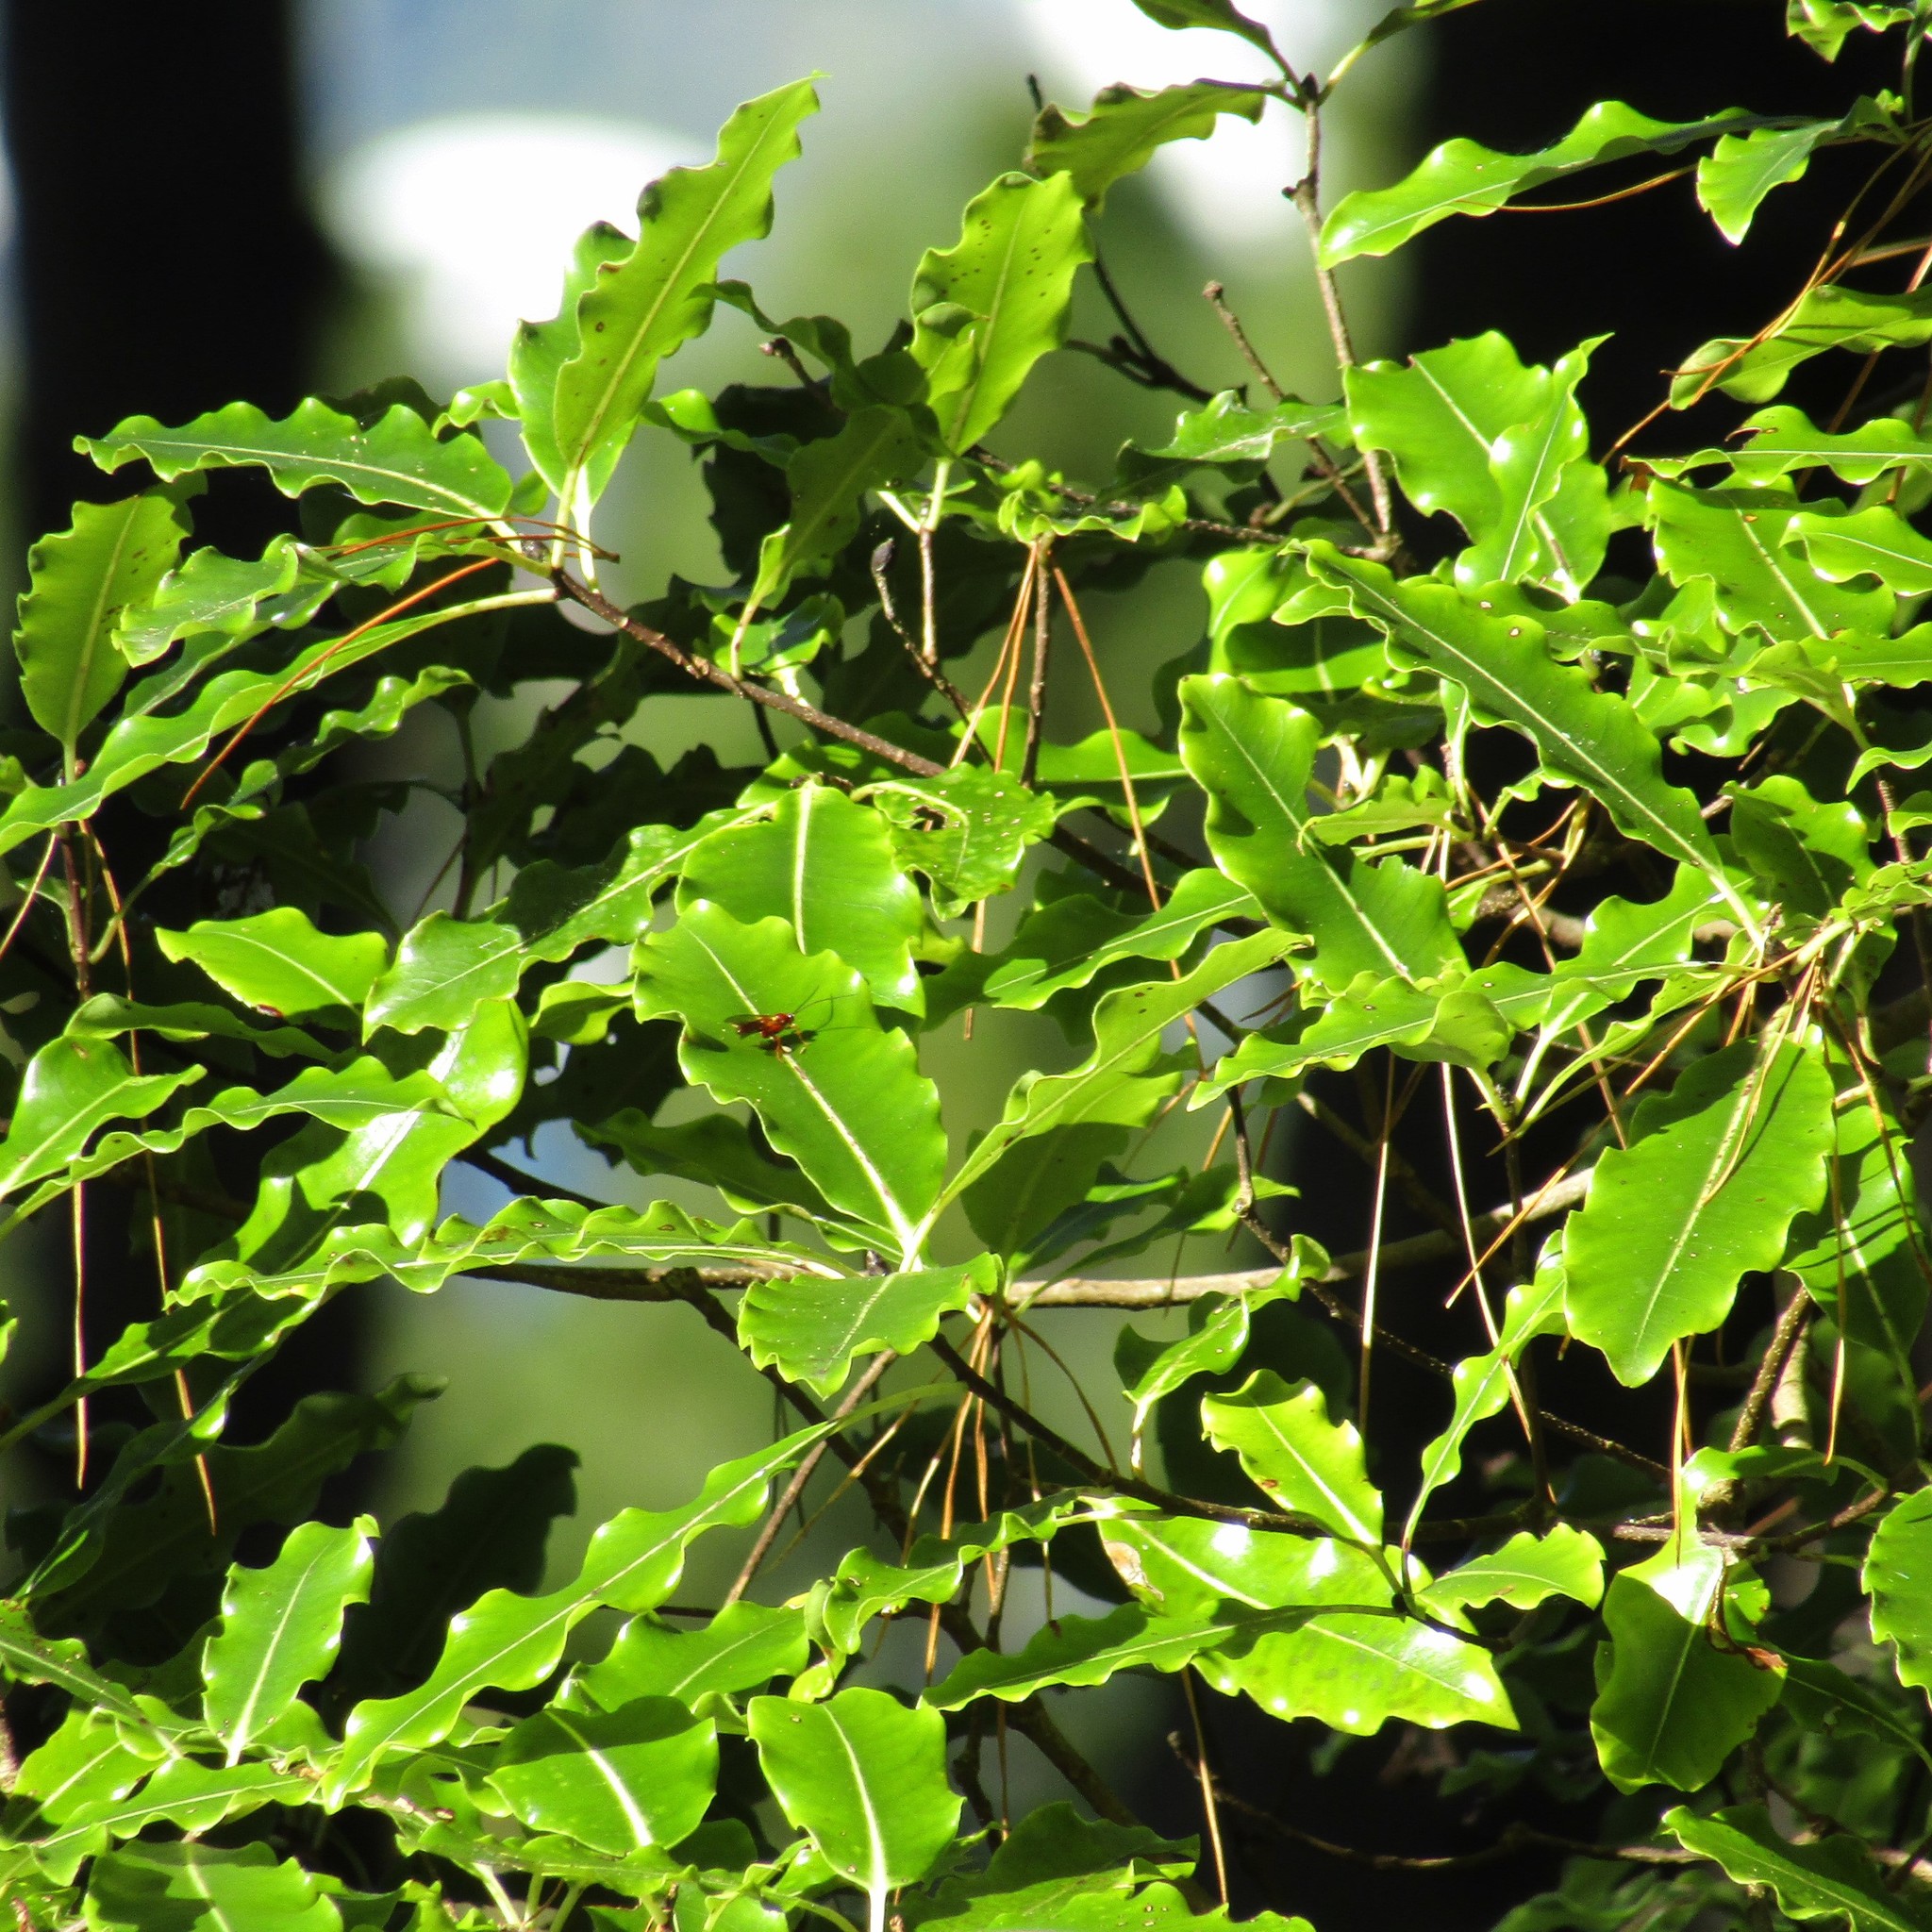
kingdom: Plantae
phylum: Tracheophyta
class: Magnoliopsida
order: Apiales
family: Pittosporaceae
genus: Pittosporum
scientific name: Pittosporum eugenioides
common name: Lemonwood
